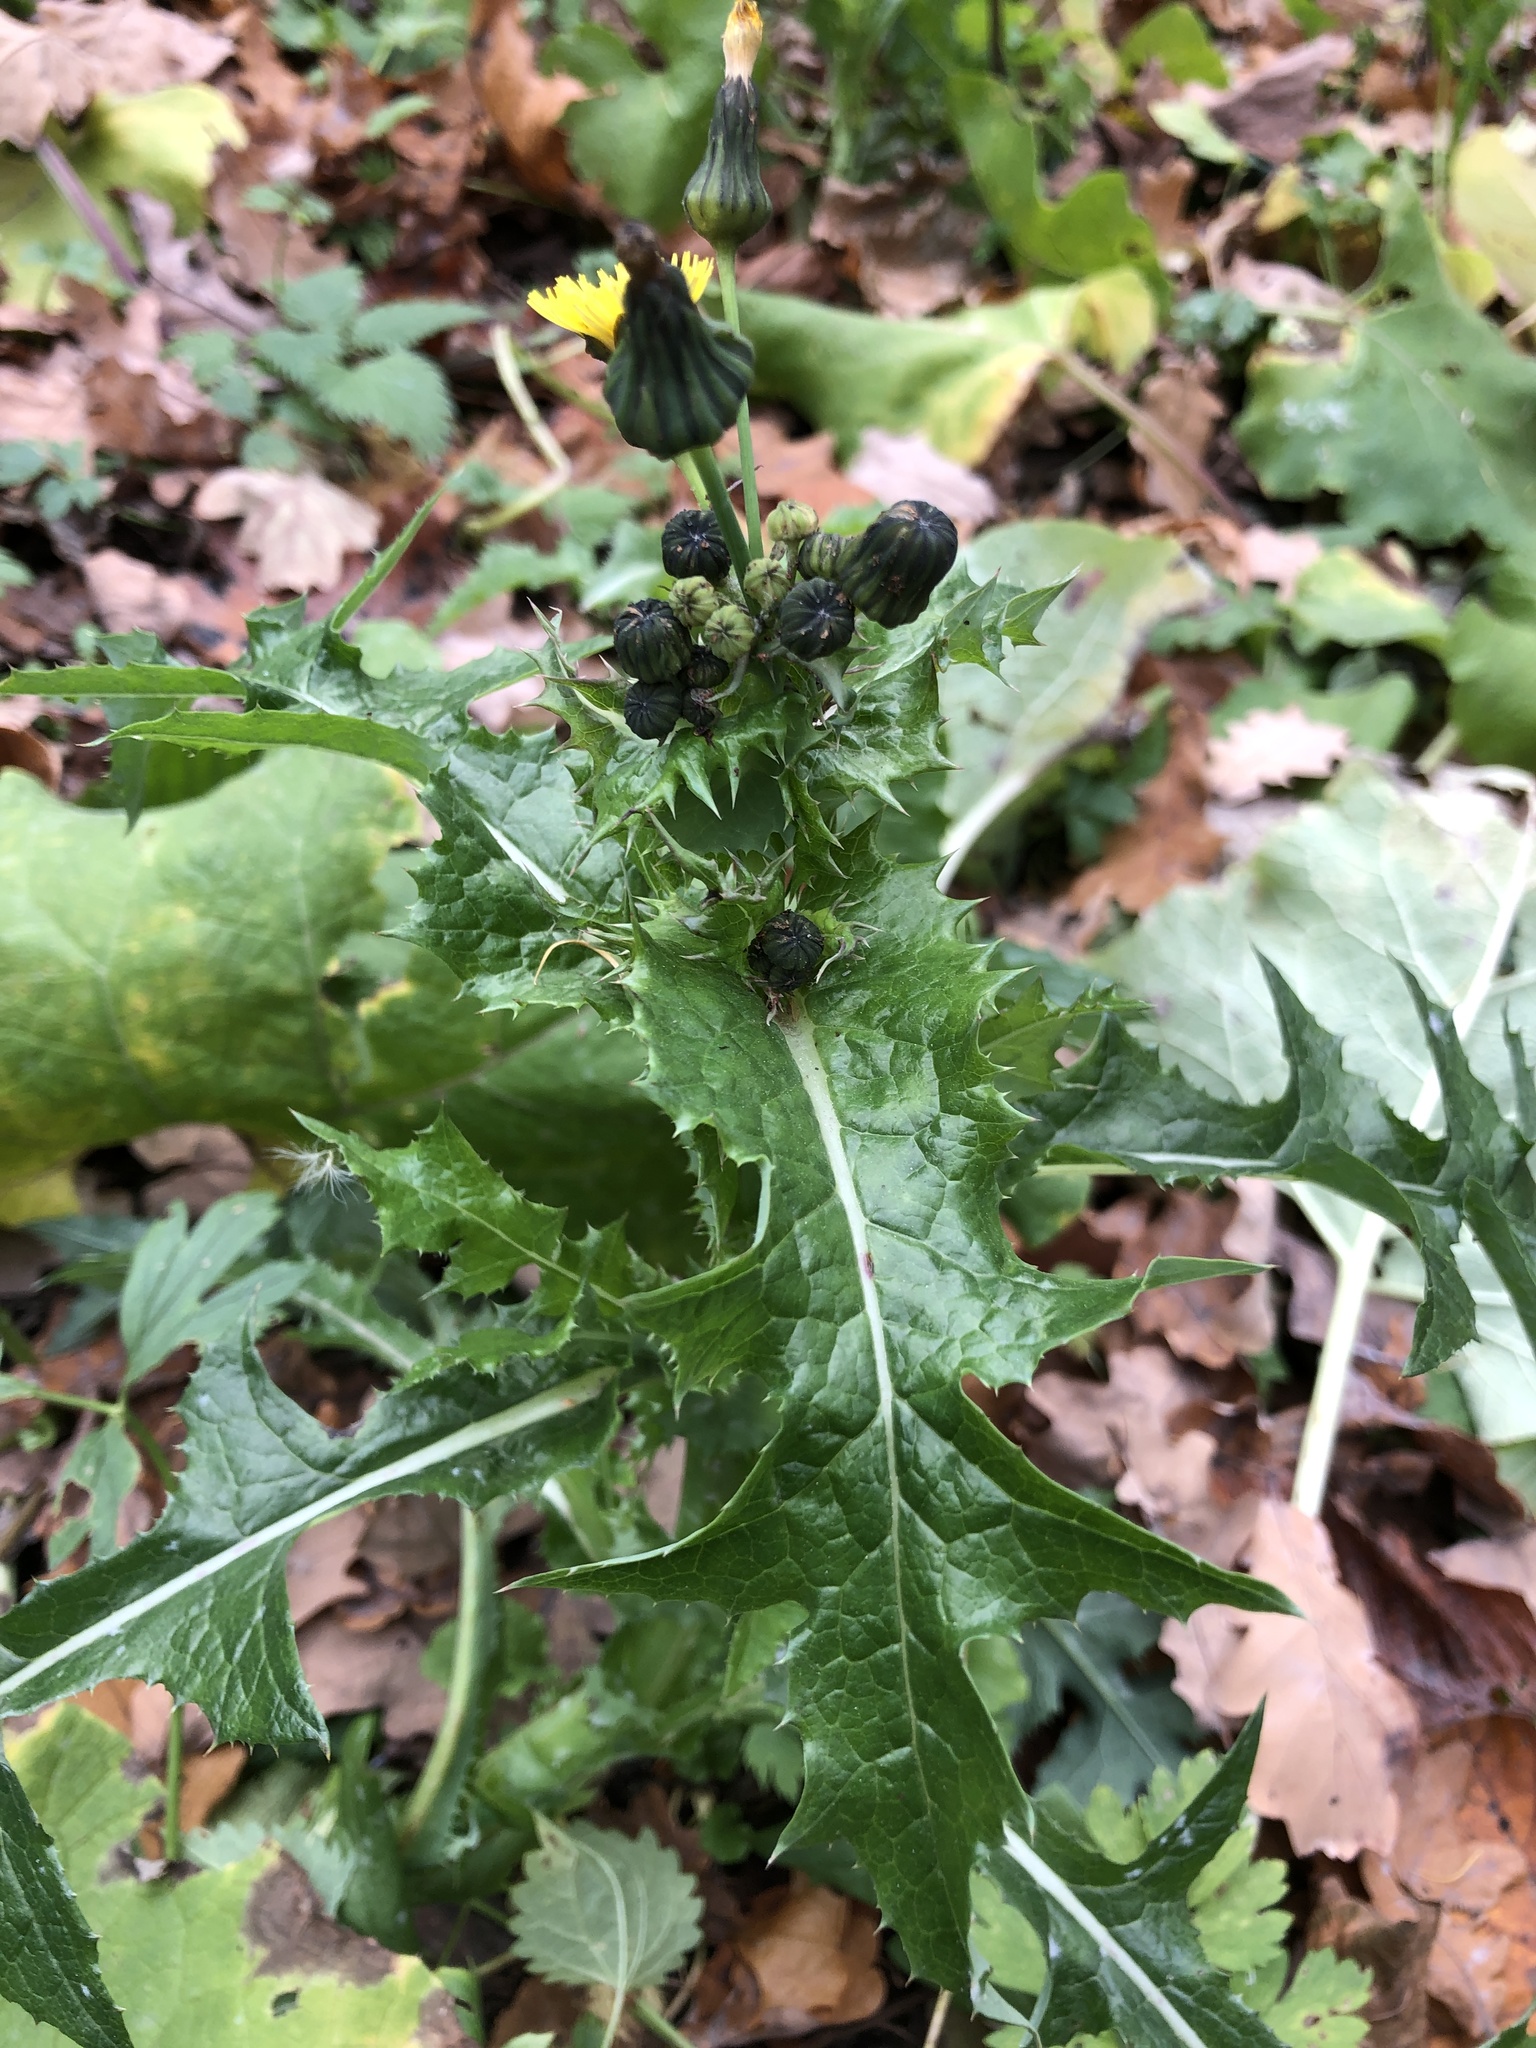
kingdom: Plantae
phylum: Tracheophyta
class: Magnoliopsida
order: Asterales
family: Asteraceae
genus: Sonchus
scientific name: Sonchus asper
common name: Prickly sow-thistle
